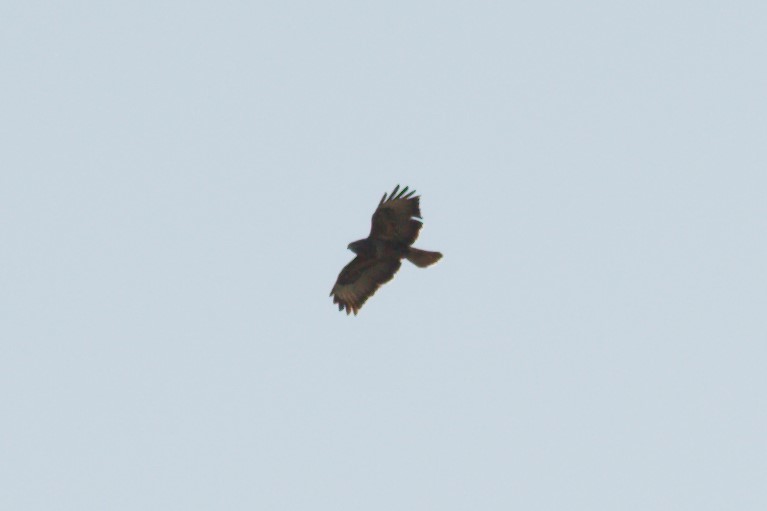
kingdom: Animalia
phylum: Chordata
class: Aves
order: Accipitriformes
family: Accipitridae
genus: Buteo
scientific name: Buteo buteo
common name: Common buzzard
